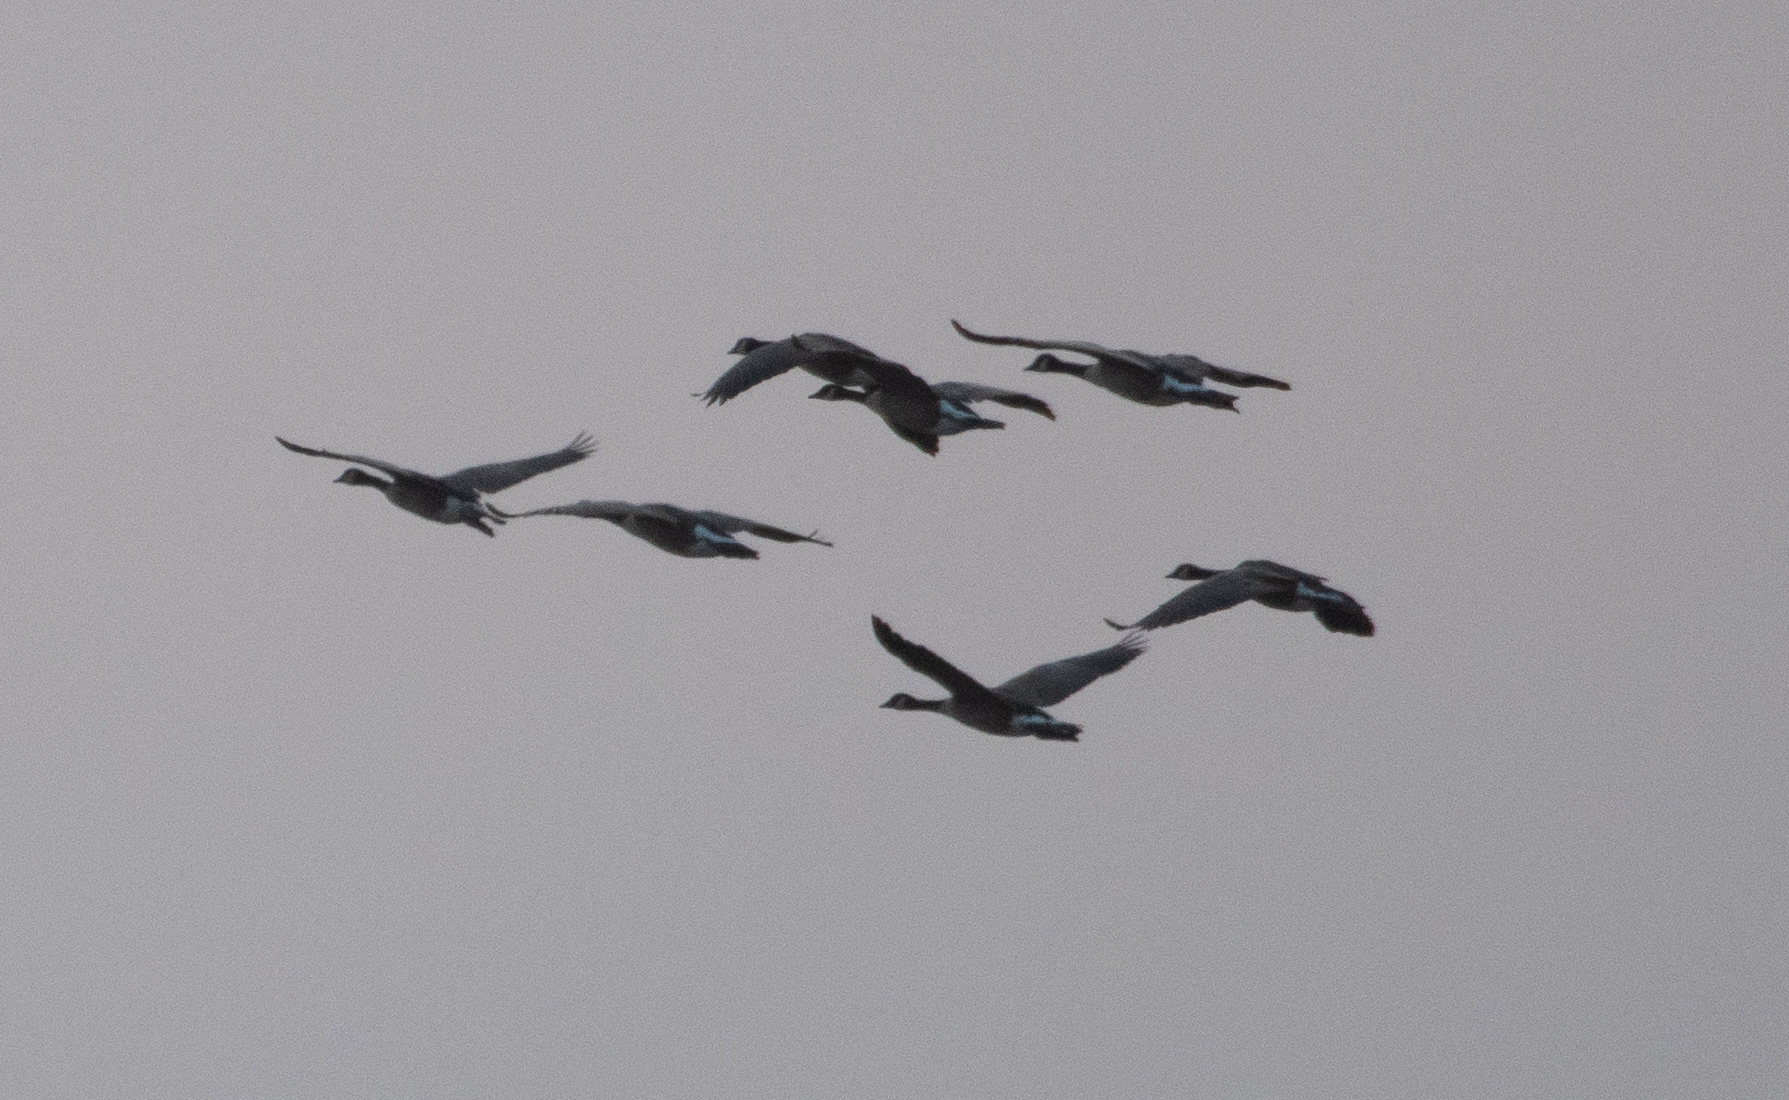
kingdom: Animalia
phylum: Chordata
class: Aves
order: Anseriformes
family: Anatidae
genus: Branta
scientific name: Branta canadensis
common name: Canada goose
